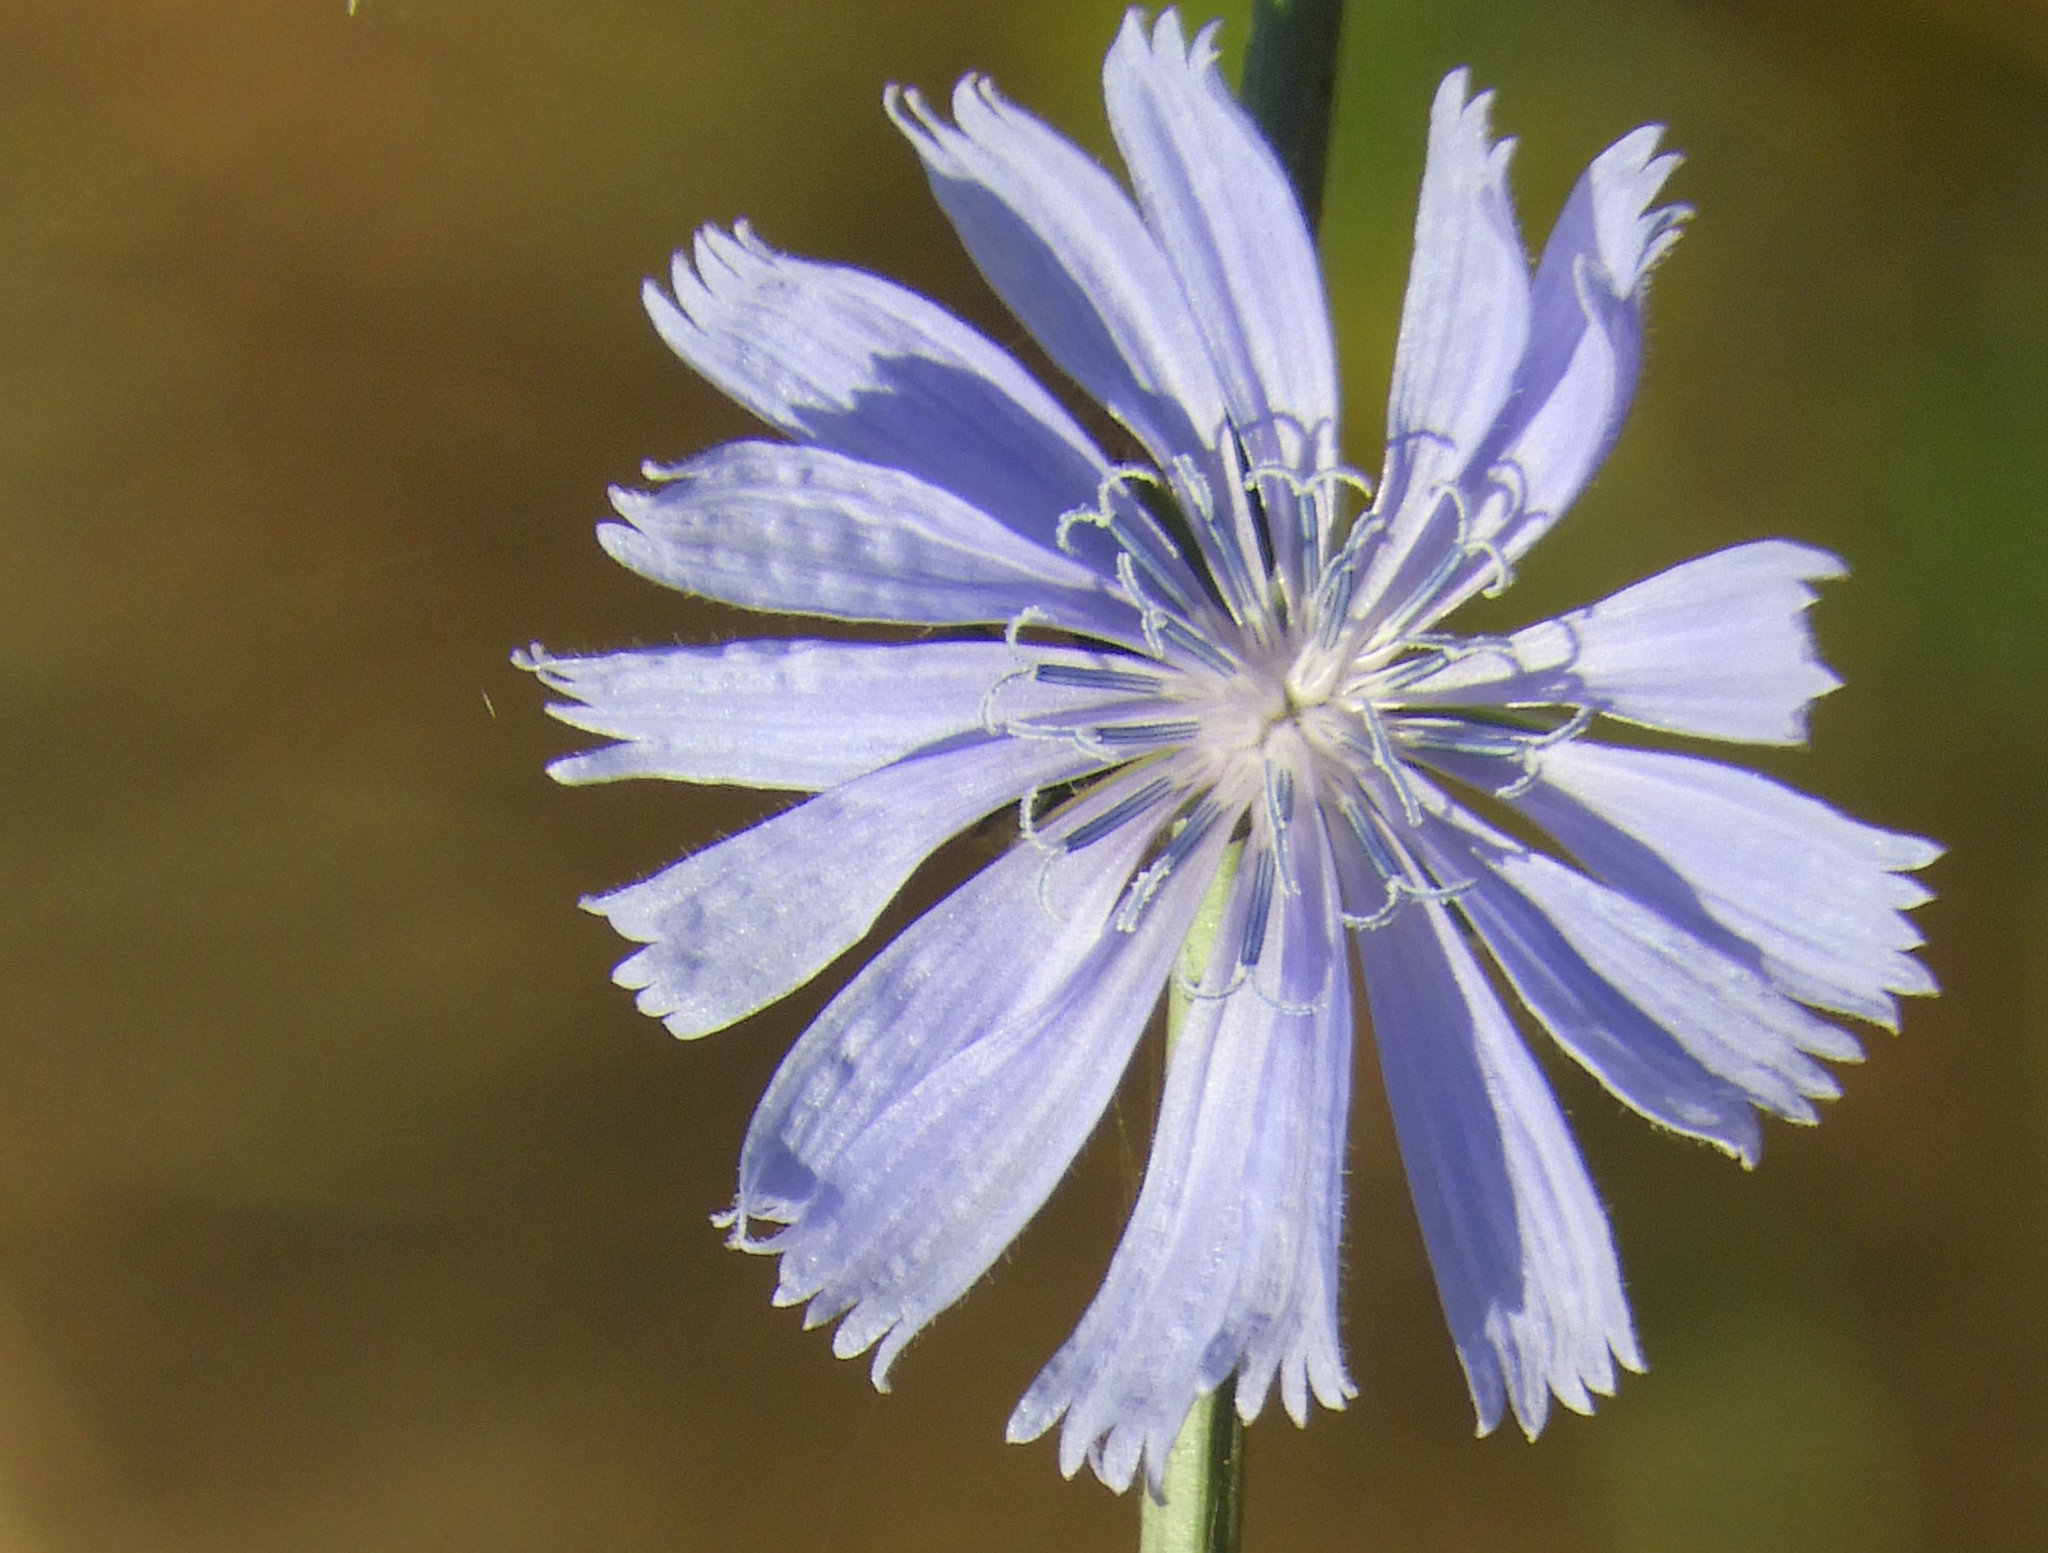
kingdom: Plantae
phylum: Tracheophyta
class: Magnoliopsida
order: Asterales
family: Asteraceae
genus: Cichorium
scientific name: Cichorium intybus
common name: Chicory
